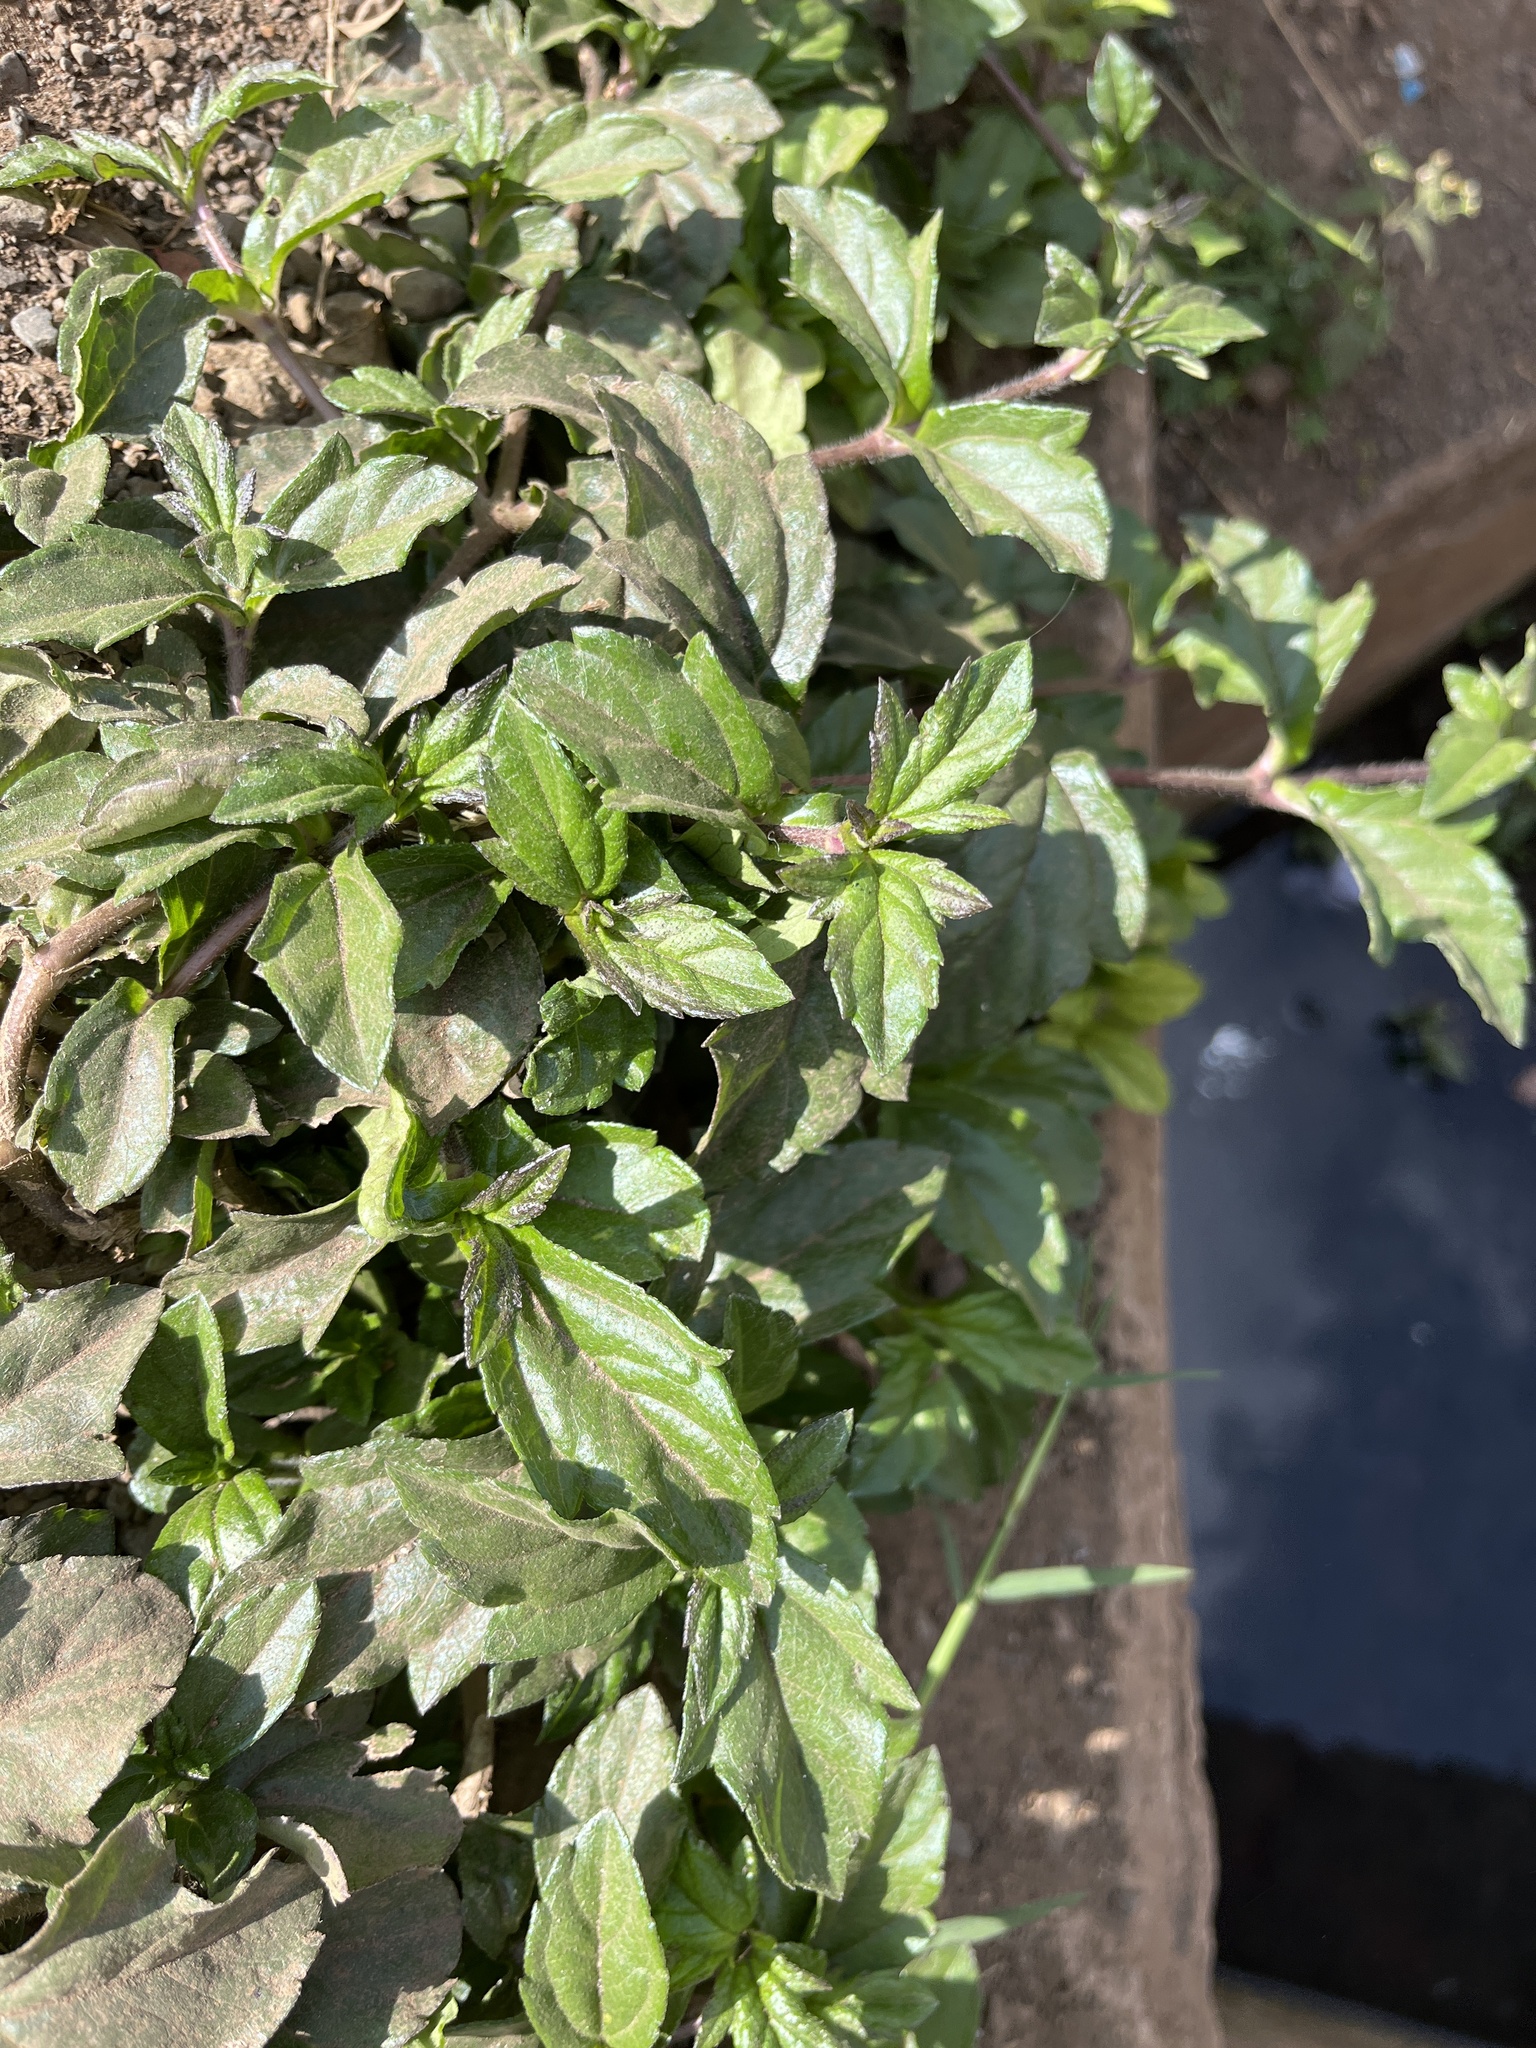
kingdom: Plantae
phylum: Tracheophyta
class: Magnoliopsida
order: Asterales
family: Asteraceae
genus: Tridax
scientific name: Tridax procumbens
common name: Coatbuttons
